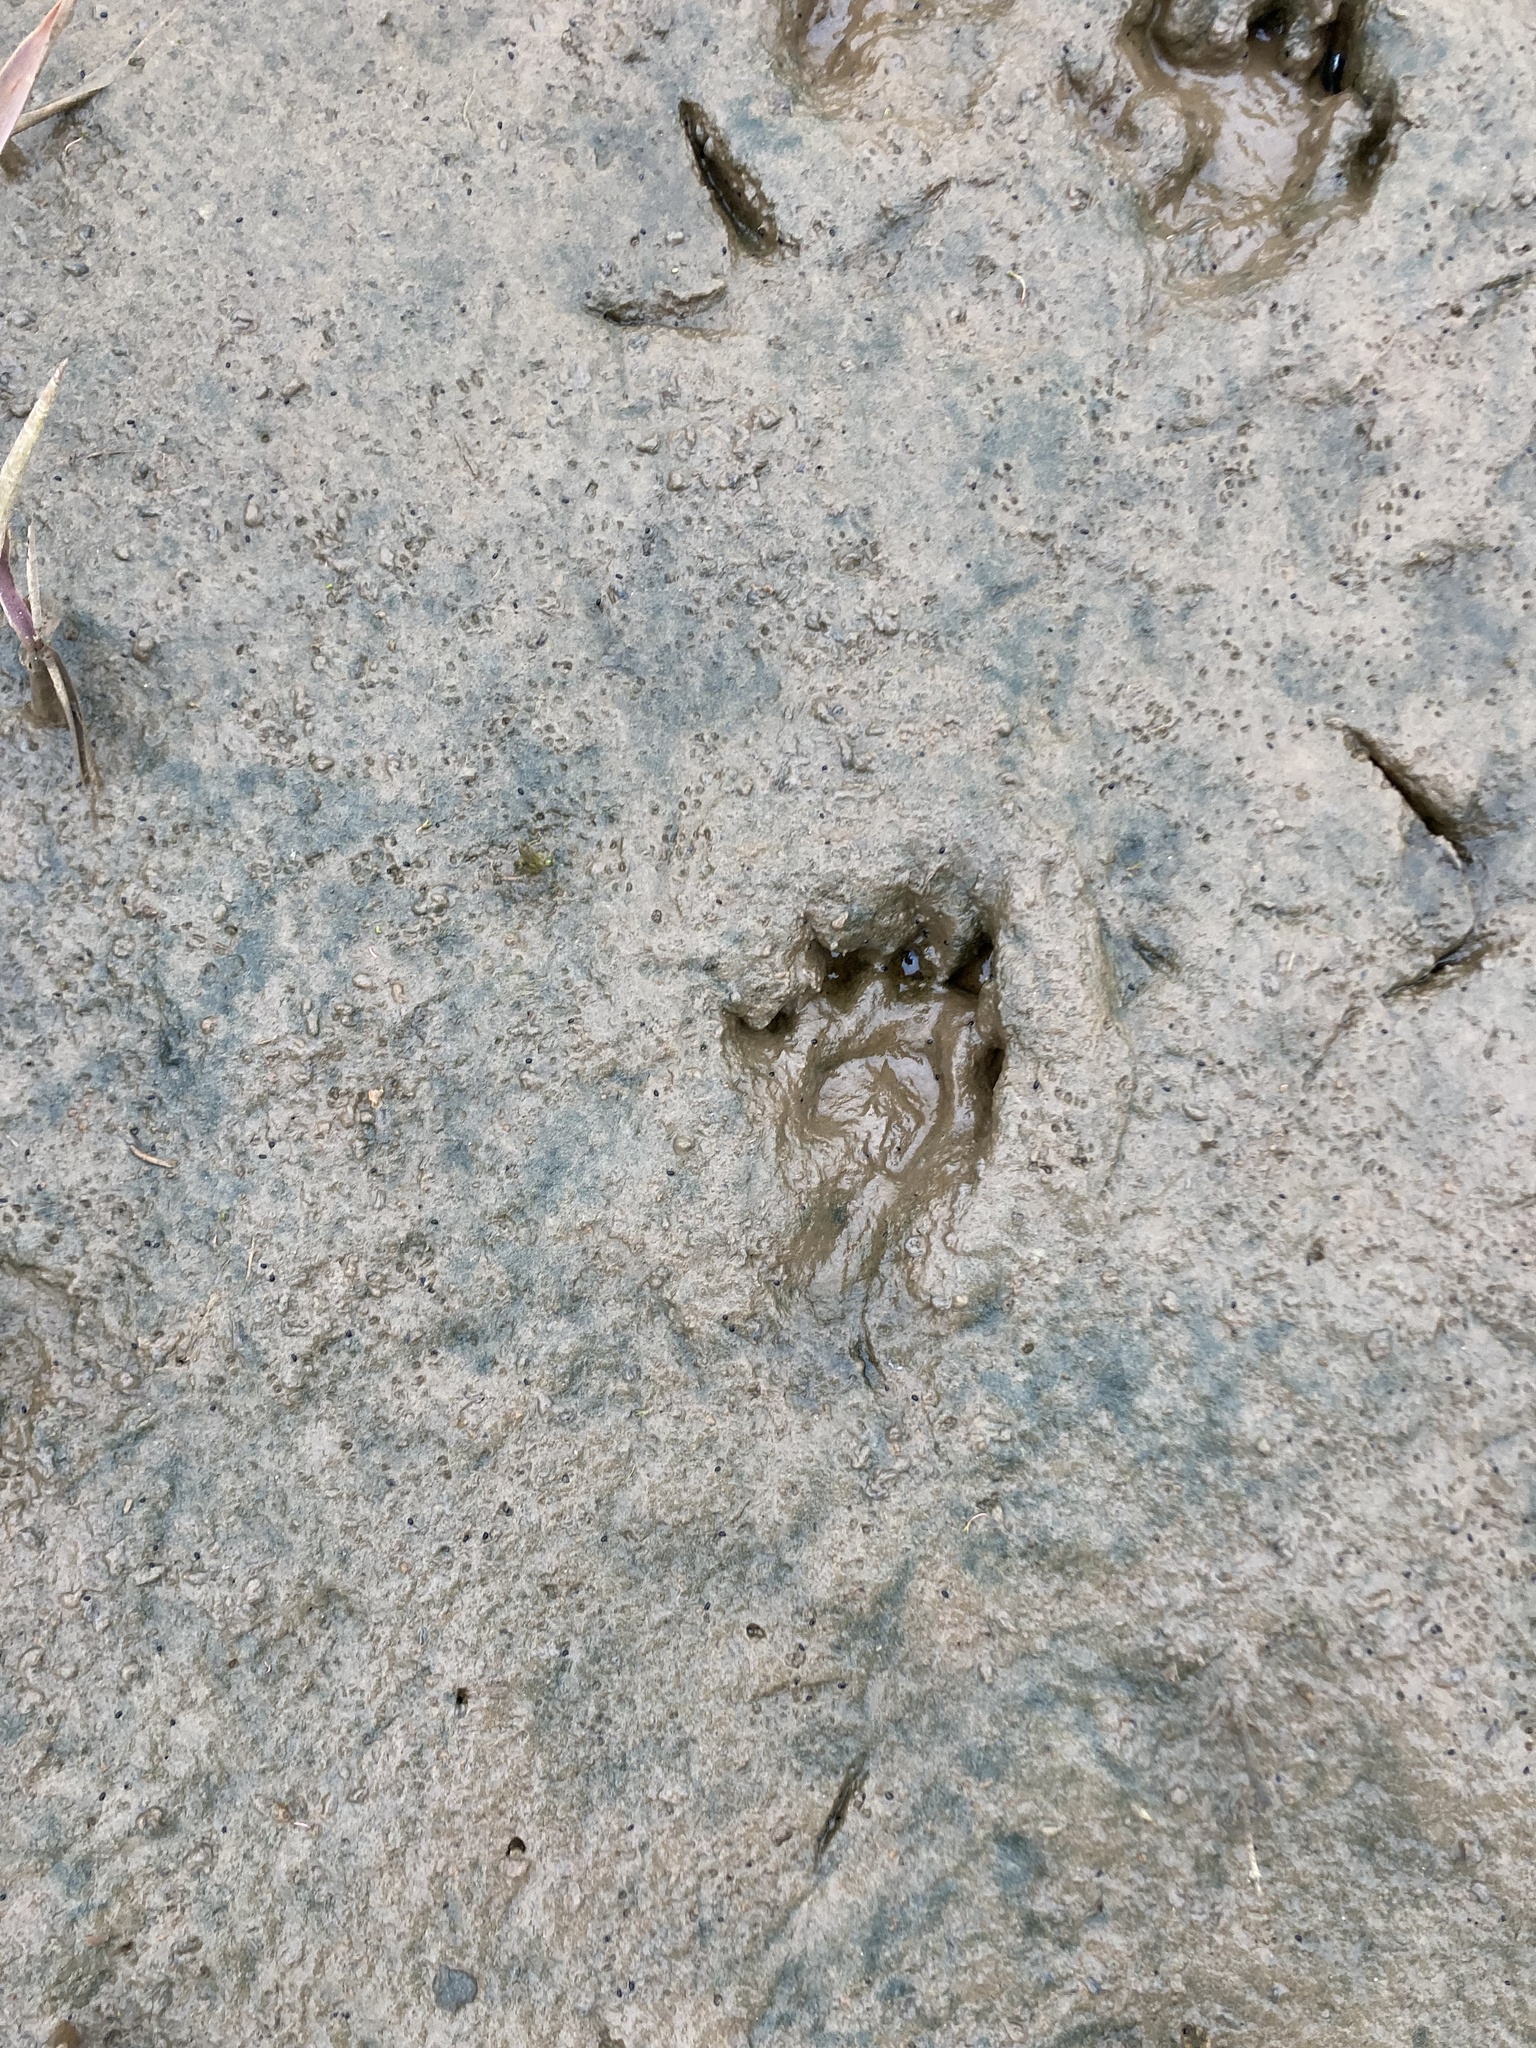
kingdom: Animalia
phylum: Chordata
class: Mammalia
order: Carnivora
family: Mustelidae
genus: Lutra
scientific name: Lutra lutra
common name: European otter
